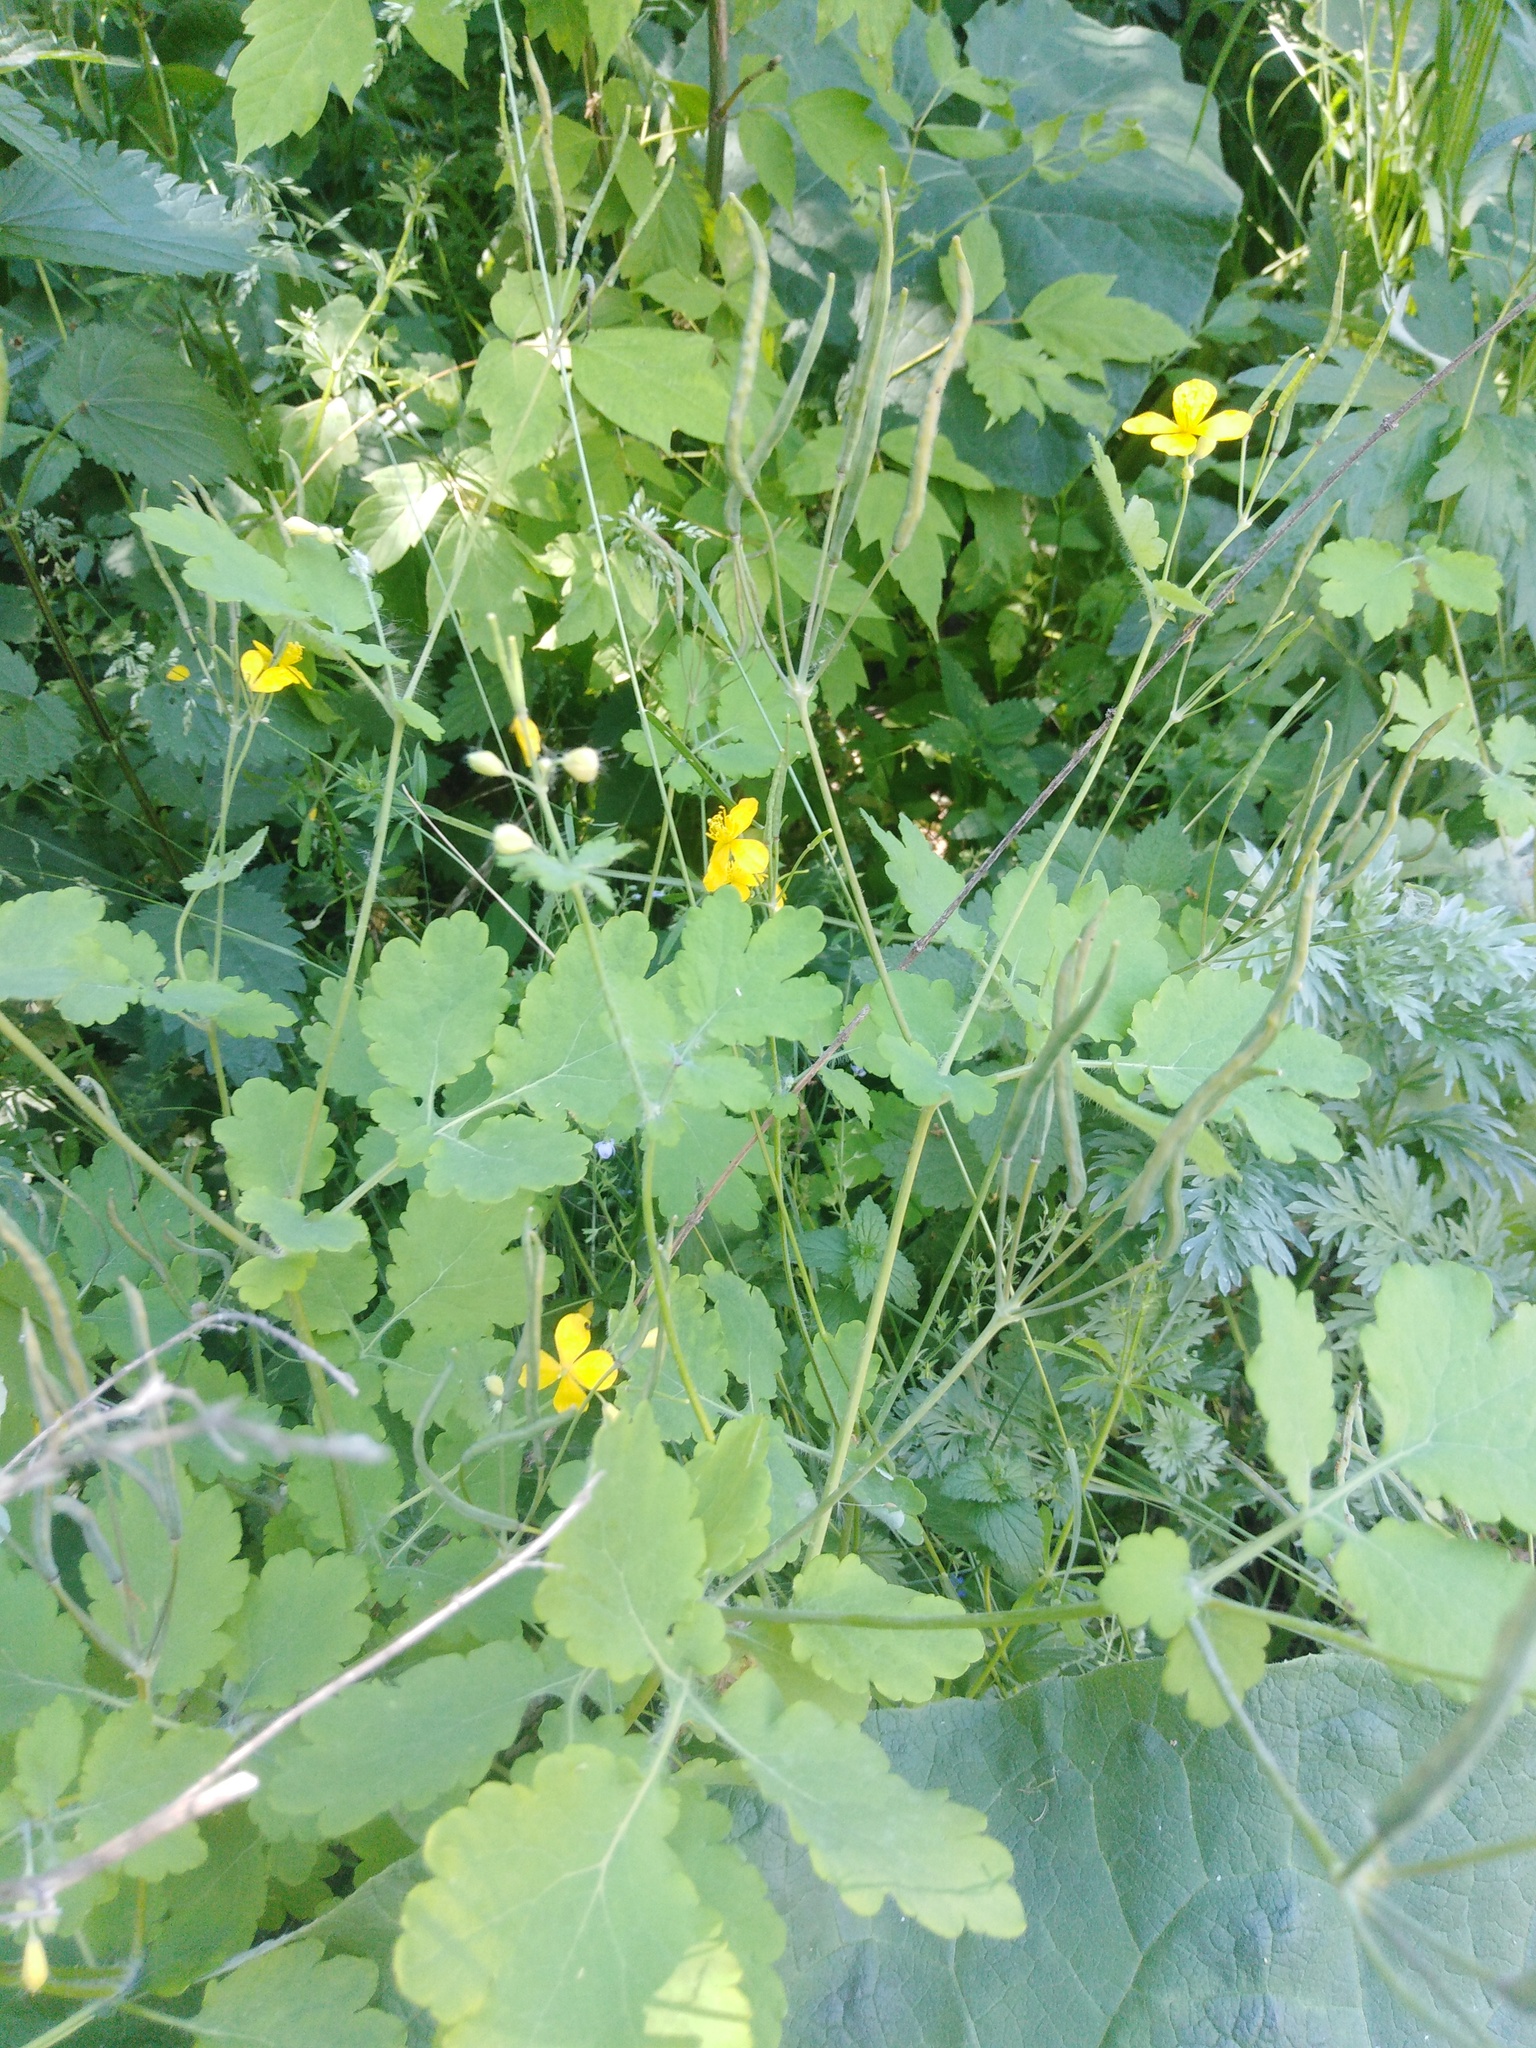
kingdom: Plantae
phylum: Tracheophyta
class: Magnoliopsida
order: Ranunculales
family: Papaveraceae
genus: Chelidonium
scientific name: Chelidonium majus
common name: Greater celandine
